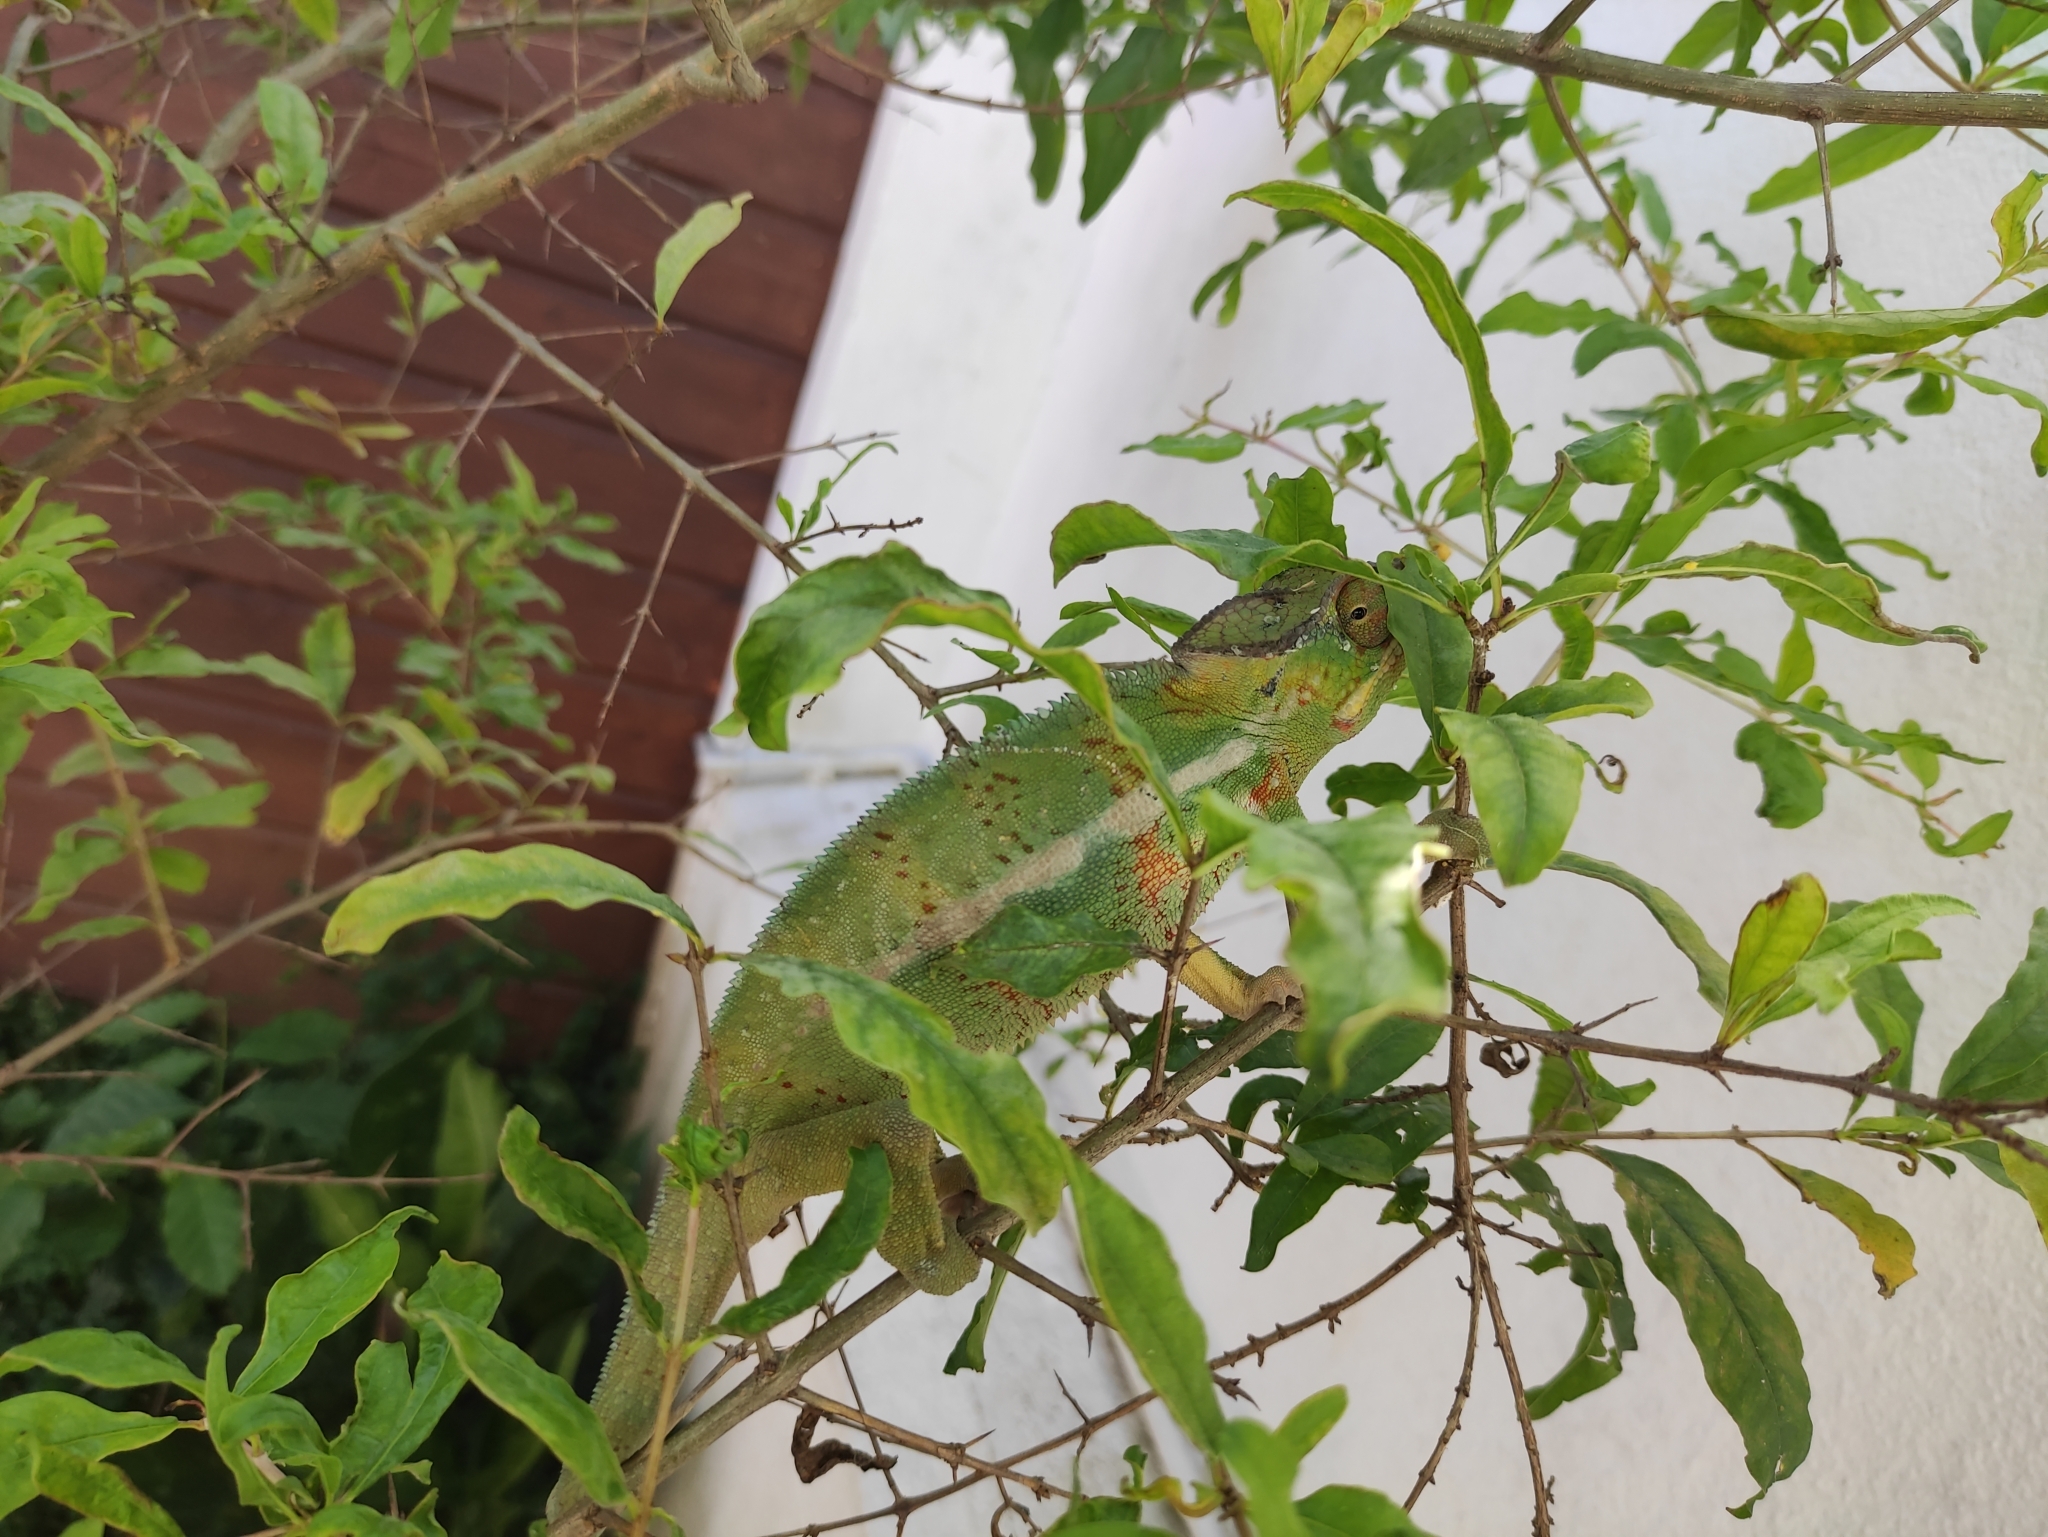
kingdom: Animalia
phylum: Chordata
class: Squamata
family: Chamaeleonidae
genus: Furcifer
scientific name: Furcifer pardalis
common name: Panther chameleon
